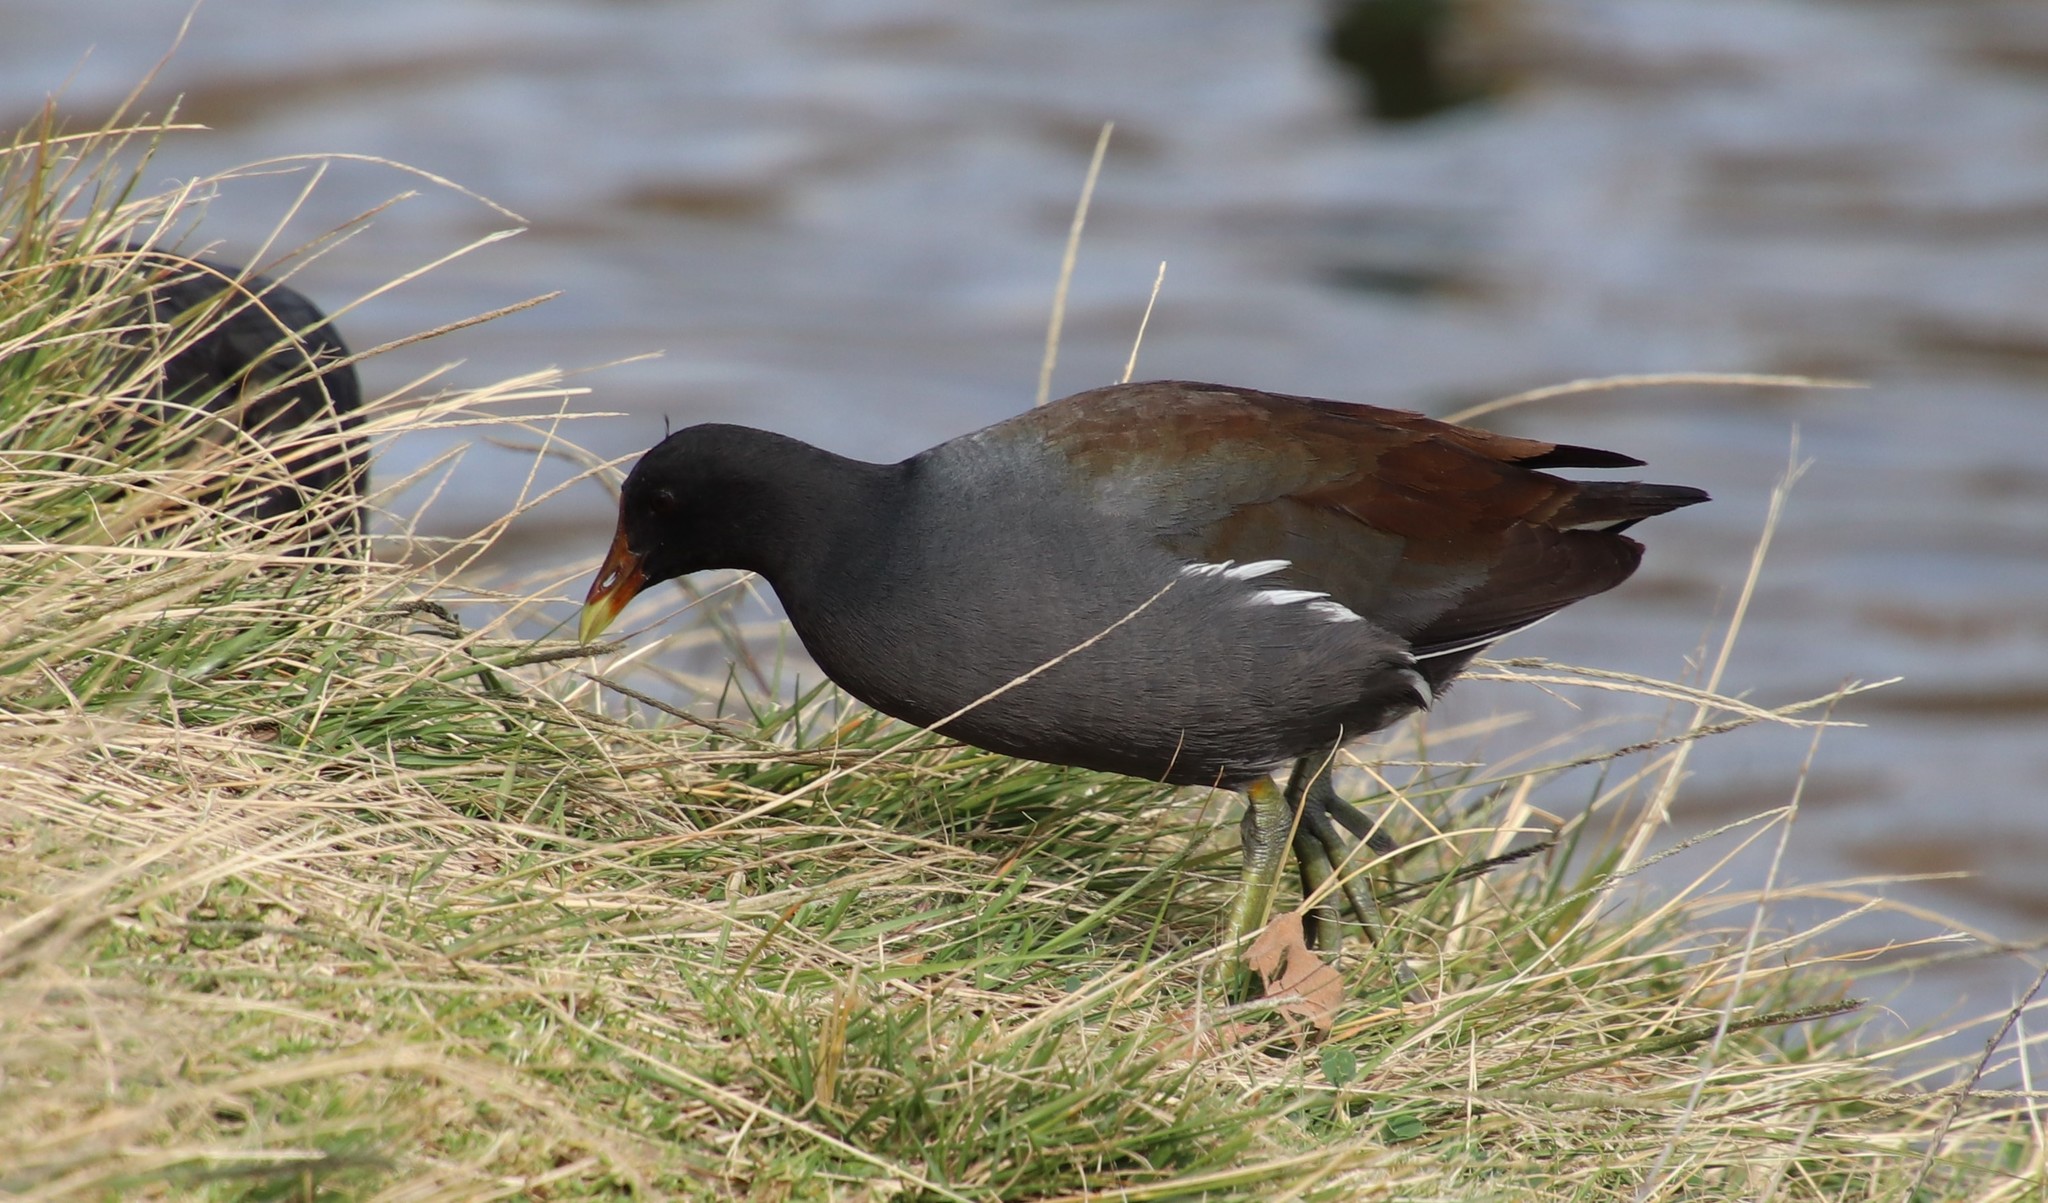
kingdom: Animalia
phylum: Chordata
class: Aves
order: Gruiformes
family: Rallidae
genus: Gallinula
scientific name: Gallinula chloropus
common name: Common moorhen
